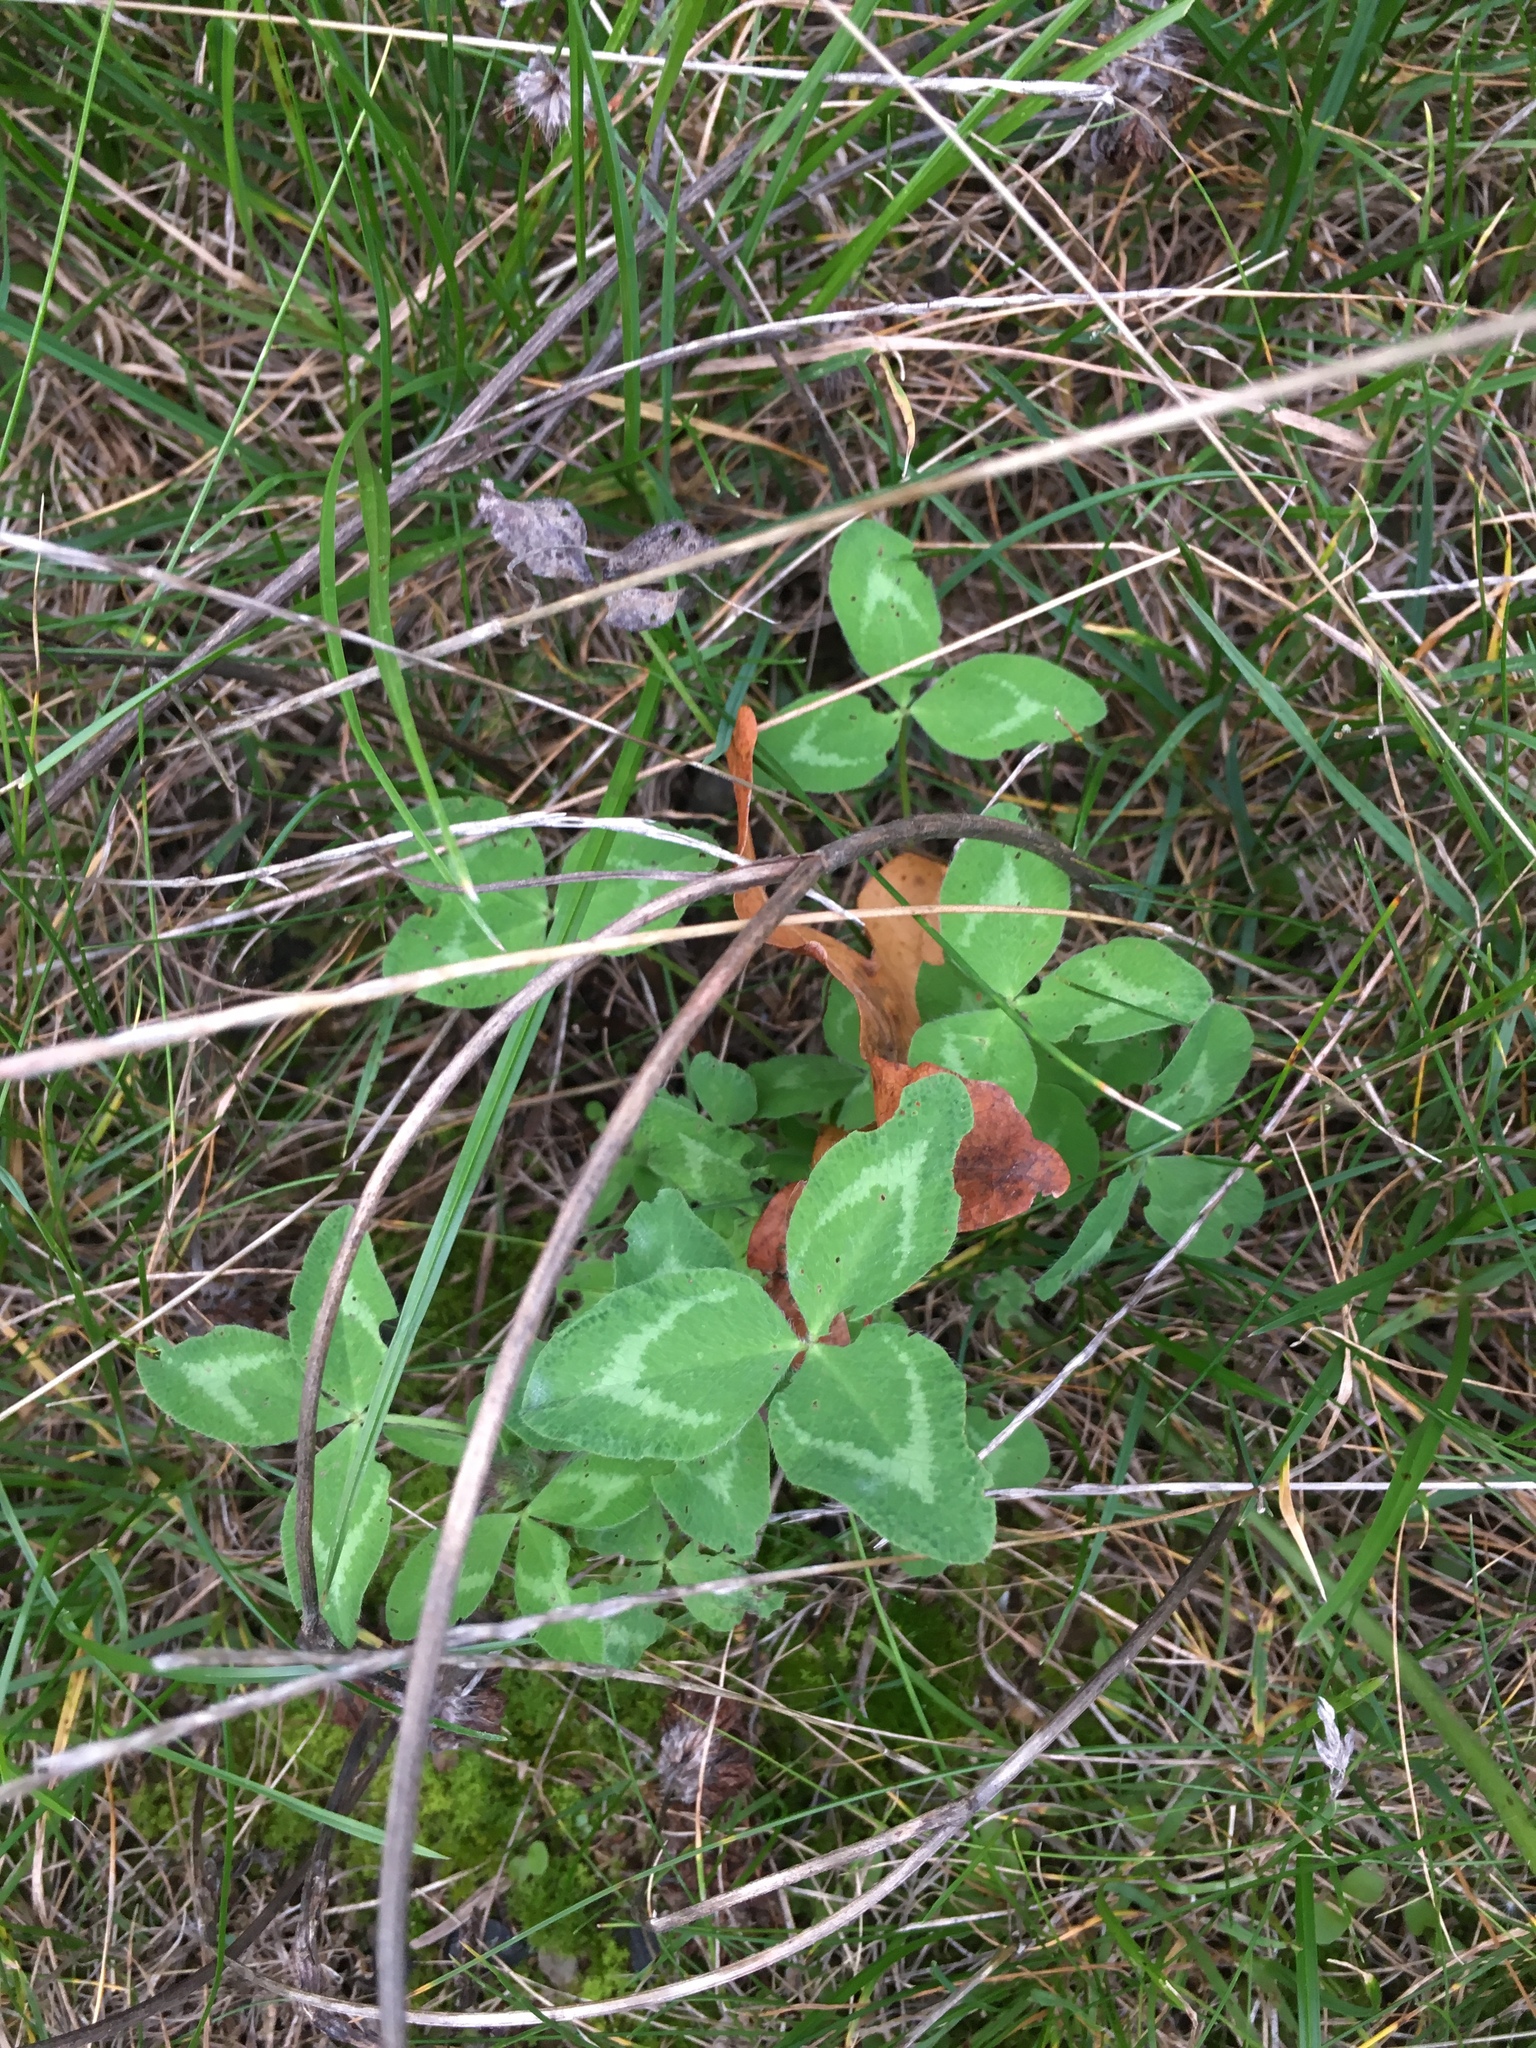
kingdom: Plantae
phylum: Tracheophyta
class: Magnoliopsida
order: Fabales
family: Fabaceae
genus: Trifolium
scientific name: Trifolium pratense
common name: Red clover
